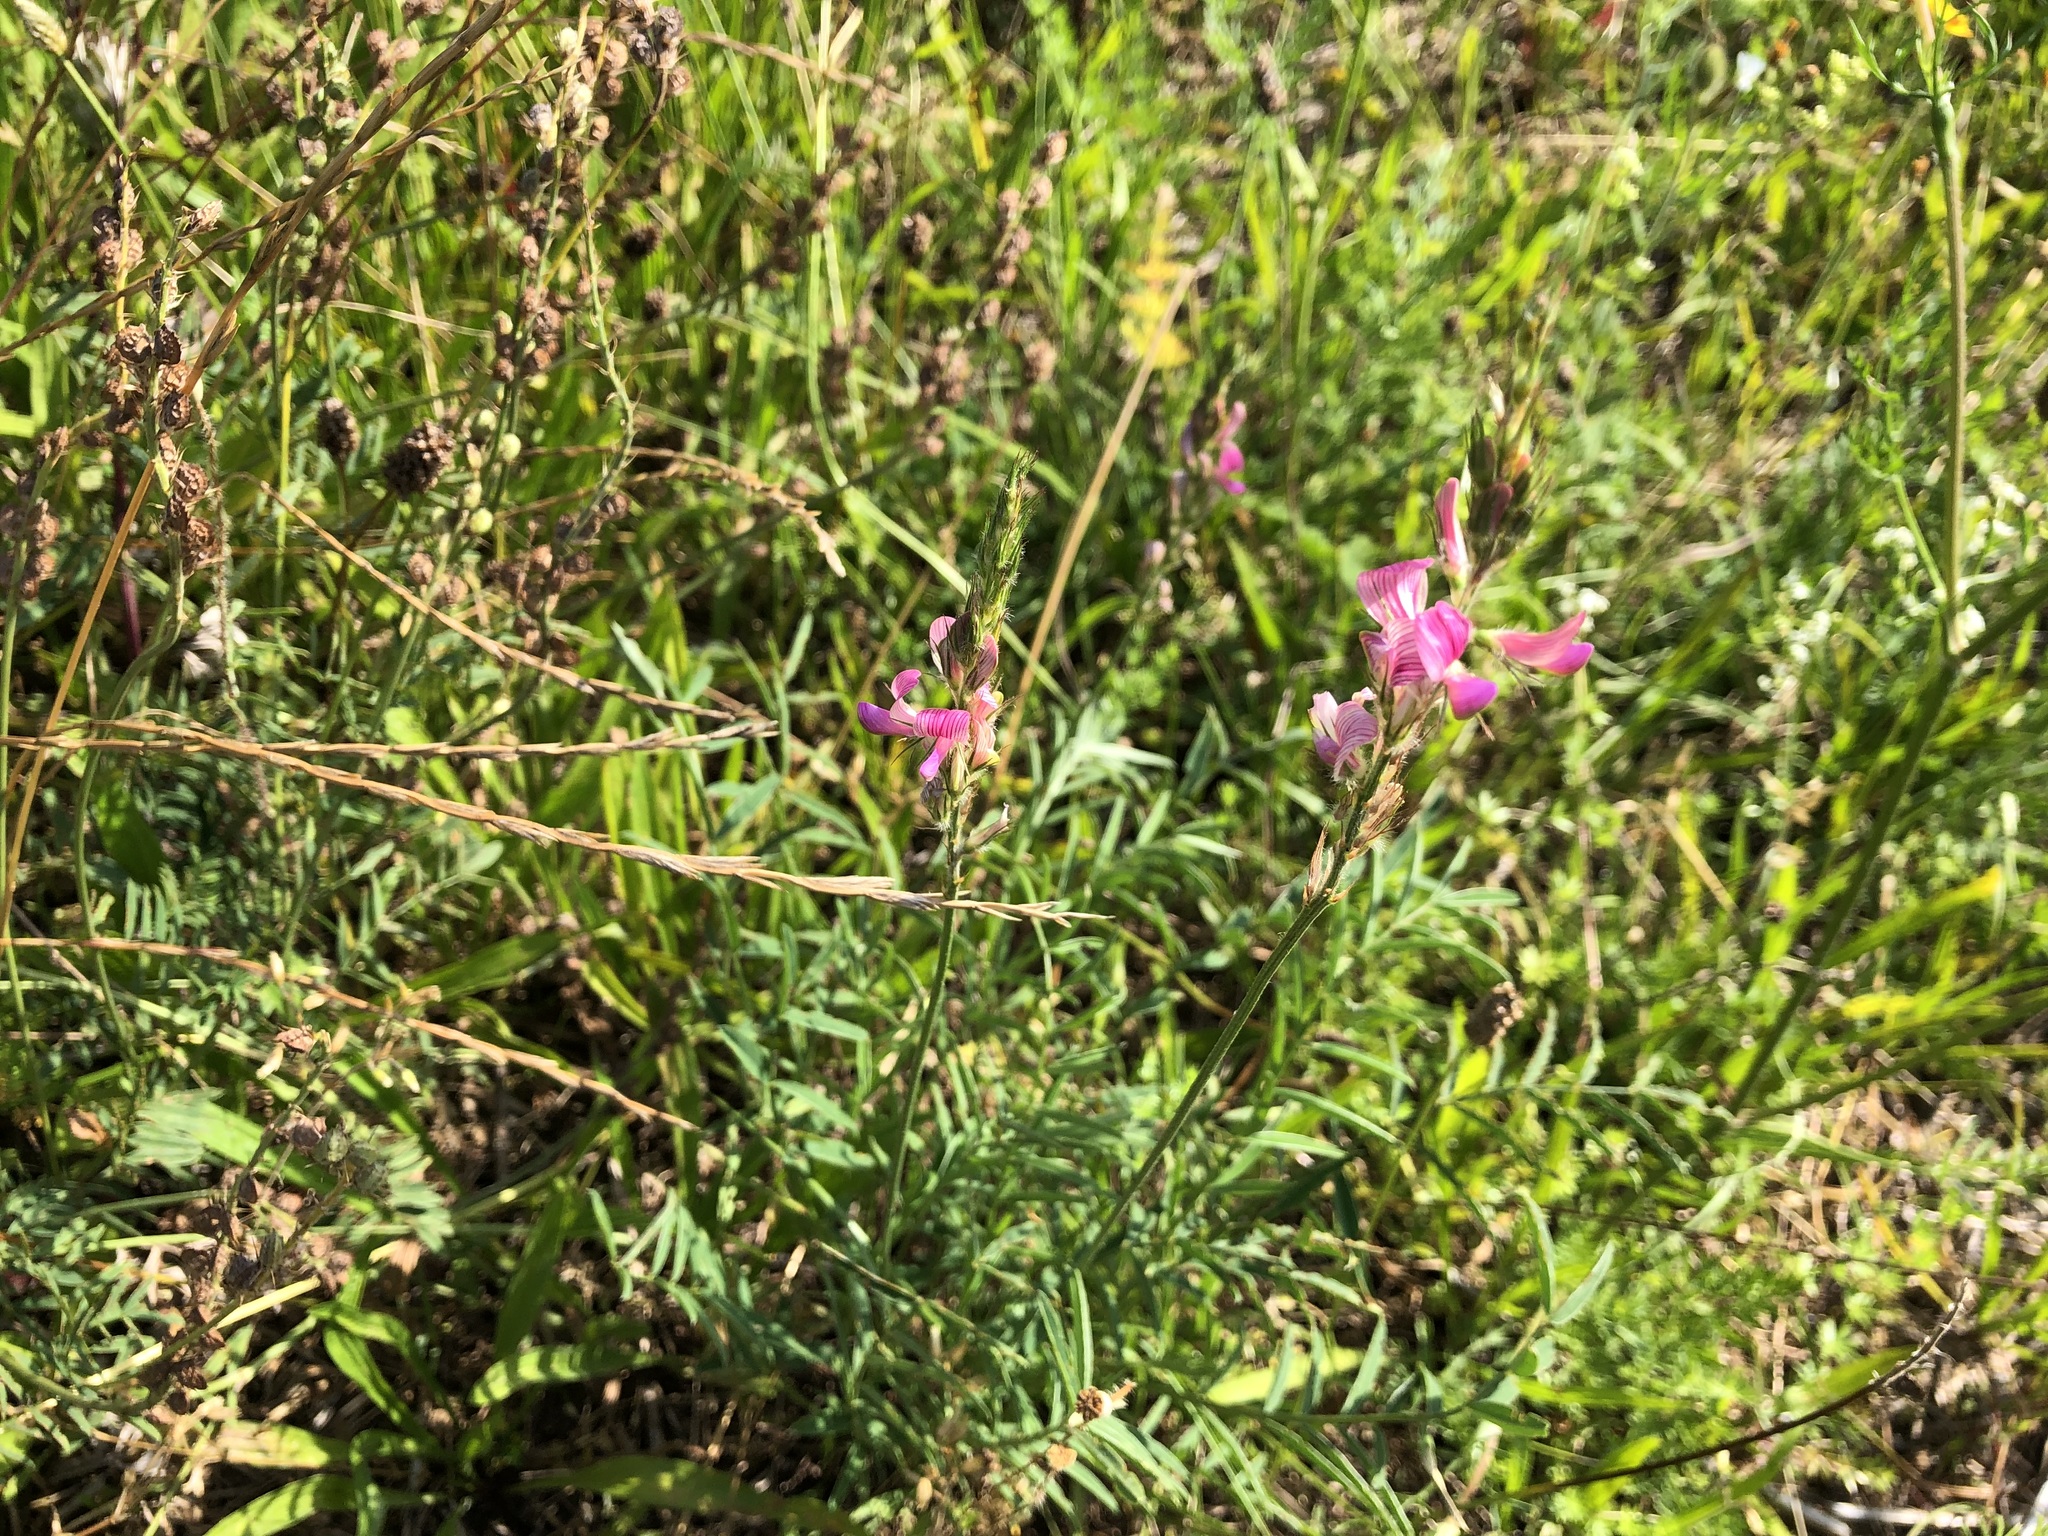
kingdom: Plantae
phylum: Tracheophyta
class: Magnoliopsida
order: Fabales
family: Fabaceae
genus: Onobrychis
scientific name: Onobrychis viciifolia
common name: Sainfoin
